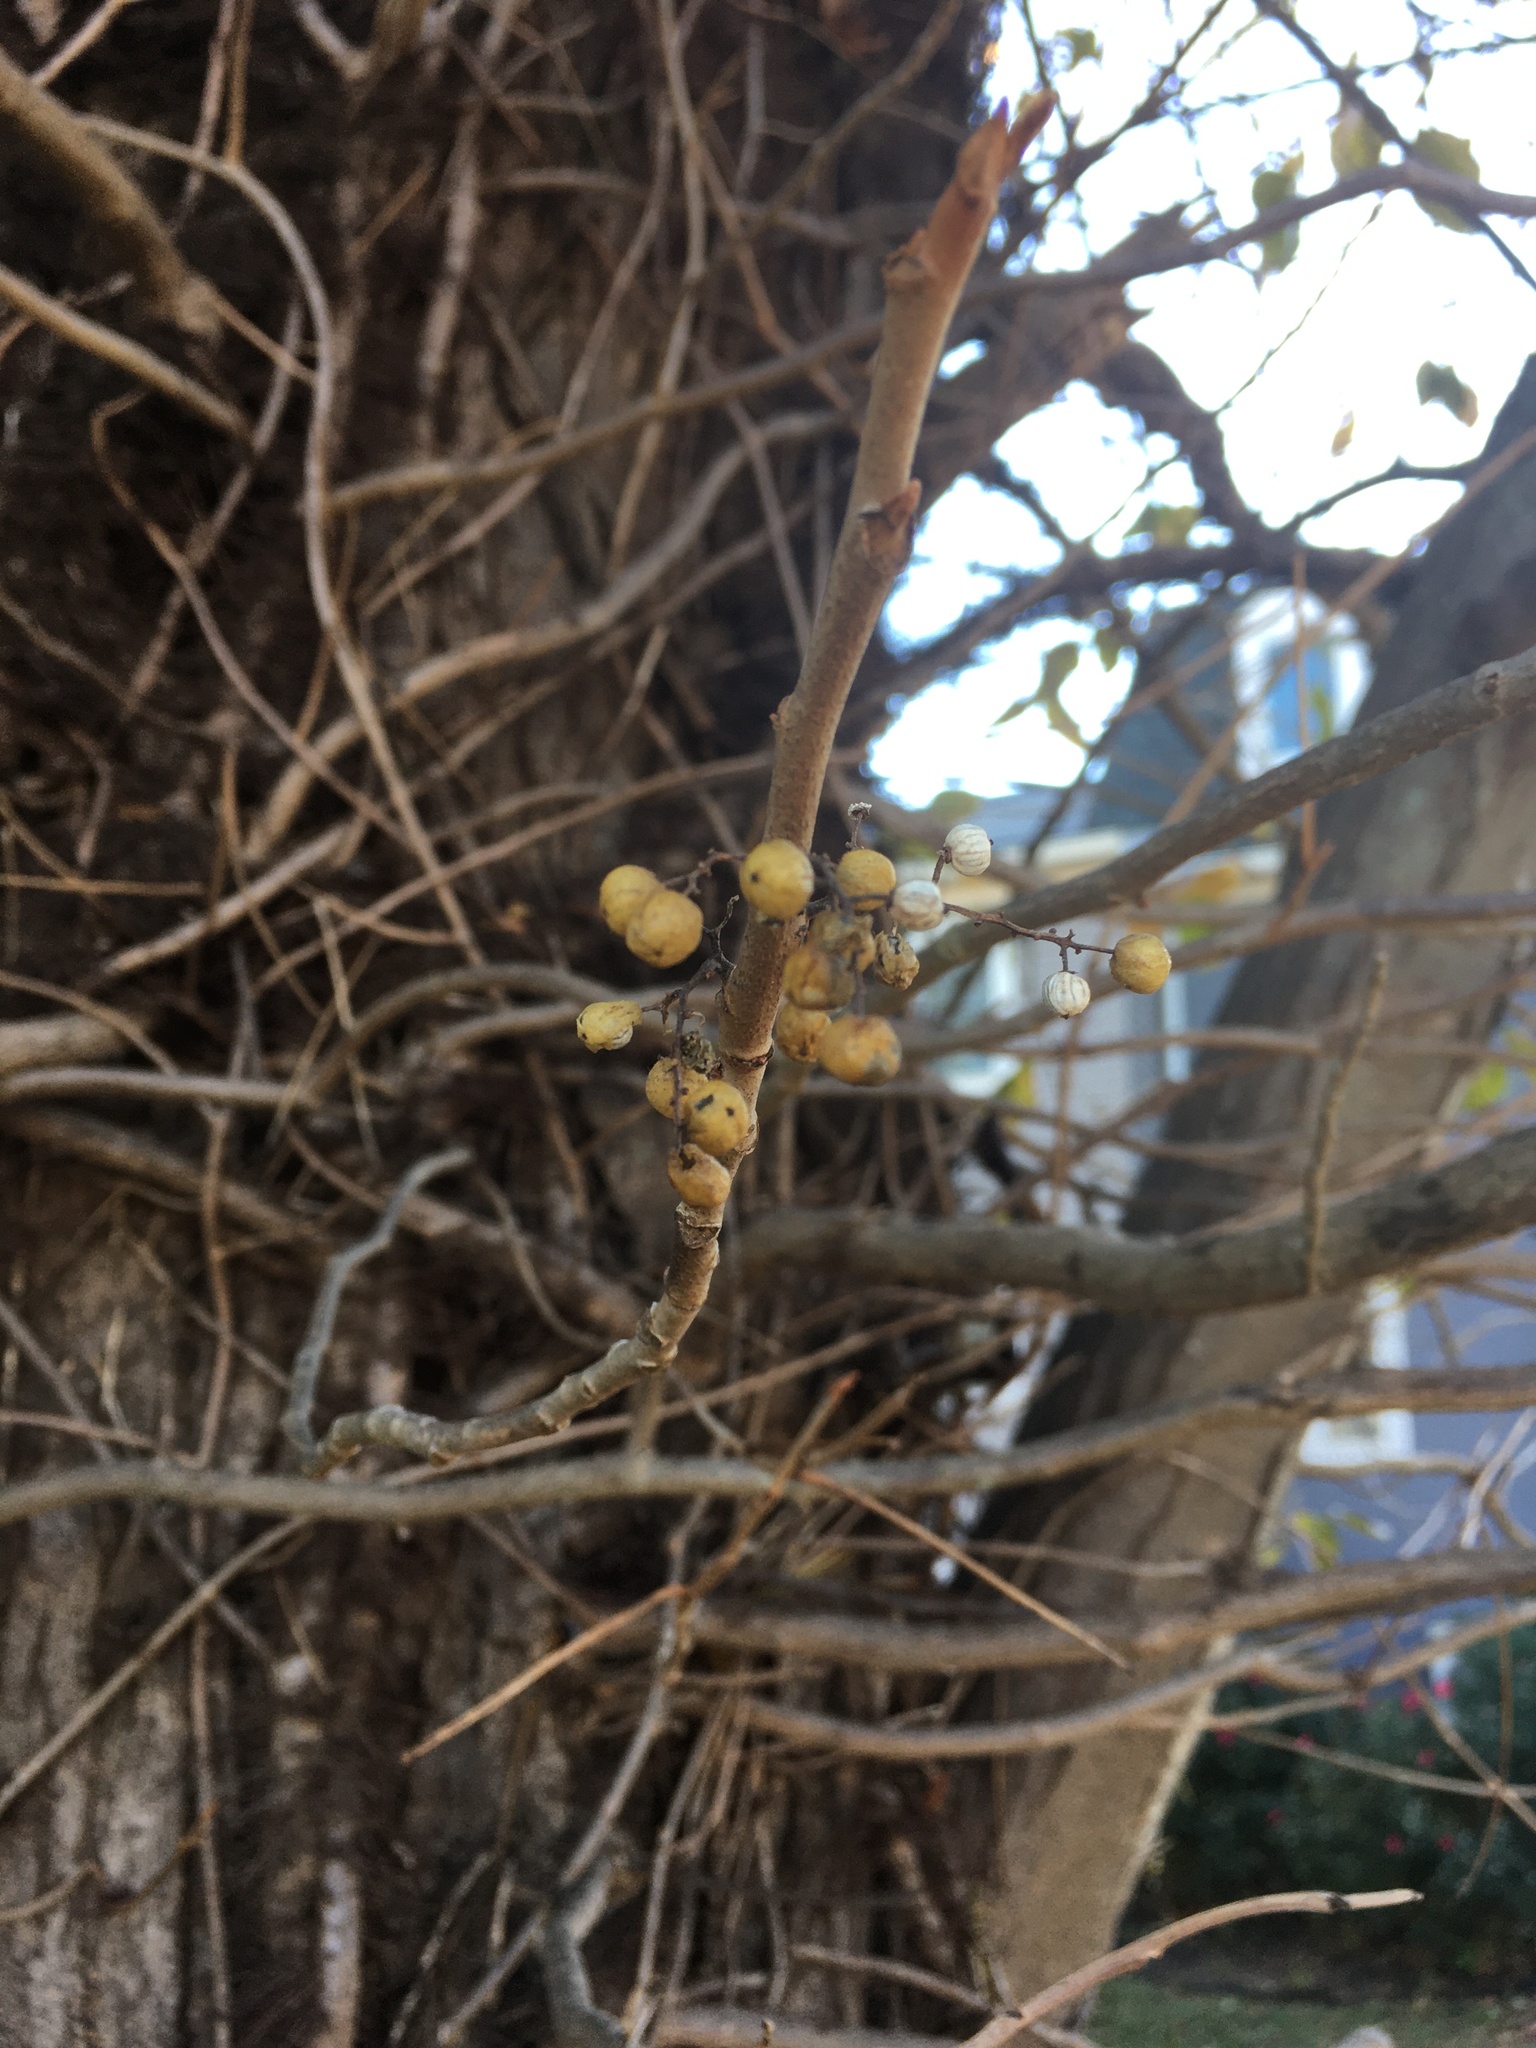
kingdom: Plantae
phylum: Tracheophyta
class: Magnoliopsida
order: Sapindales
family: Anacardiaceae
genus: Toxicodendron
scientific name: Toxicodendron radicans
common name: Poison ivy
